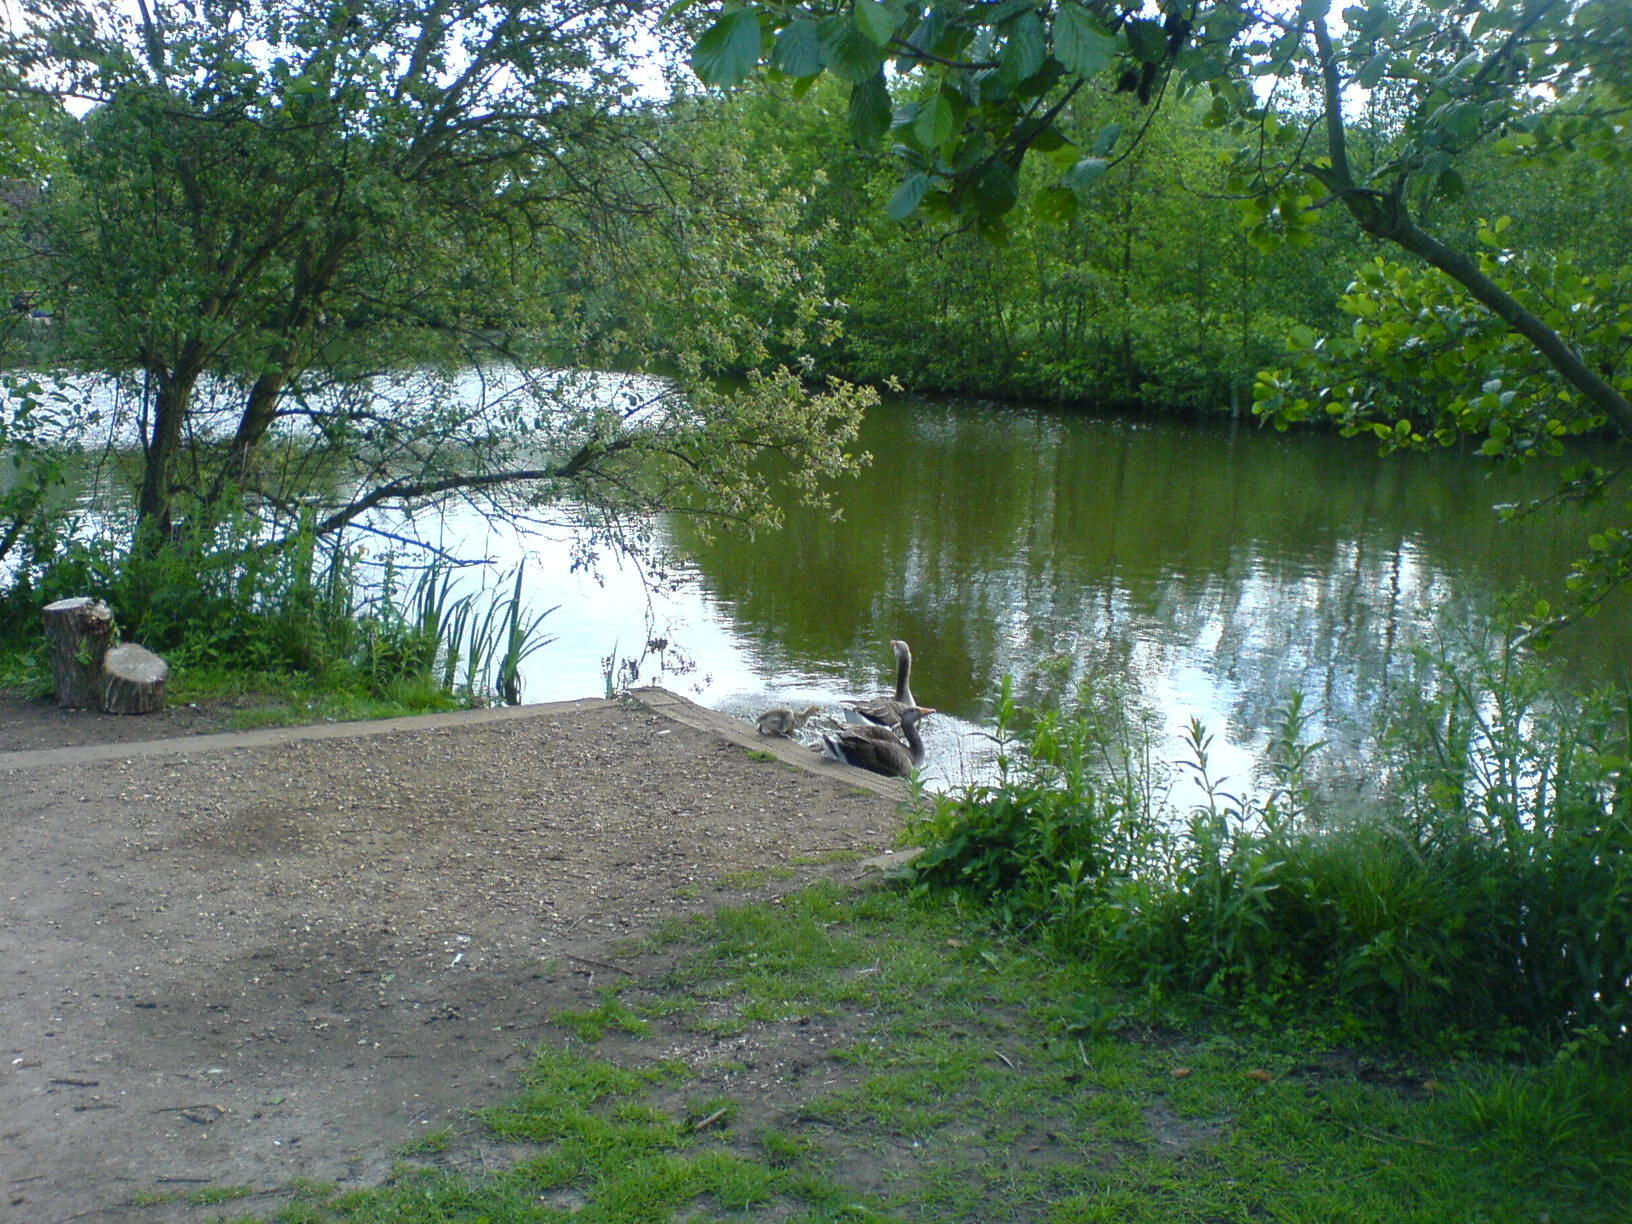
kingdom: Animalia
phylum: Chordata
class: Aves
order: Anseriformes
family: Anatidae
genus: Anser
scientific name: Anser anser
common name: Greylag goose
